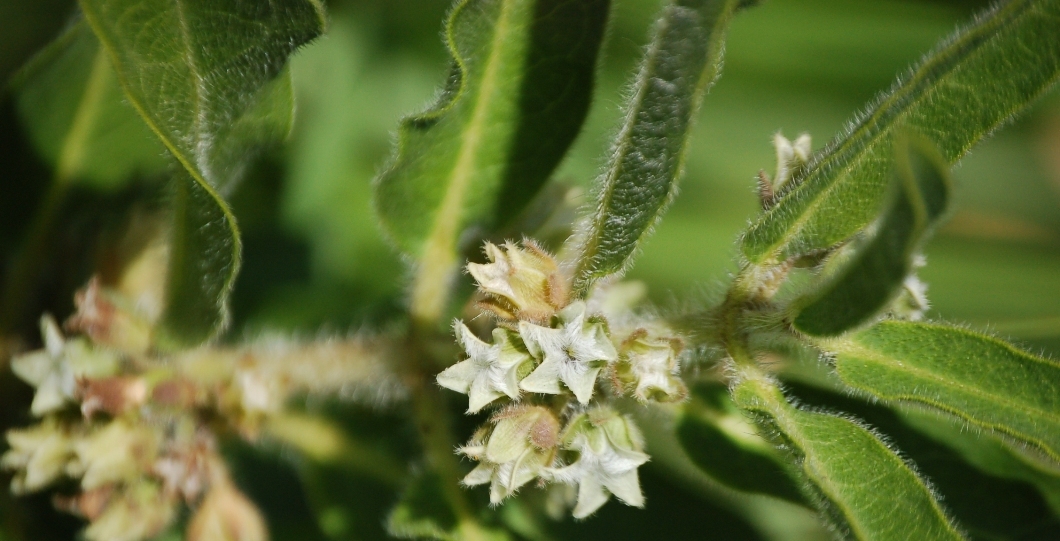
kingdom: Plantae
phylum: Tracheophyta
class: Magnoliopsida
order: Gentianales
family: Apocynaceae
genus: Pherotrichis
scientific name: Pherotrichis villosa
